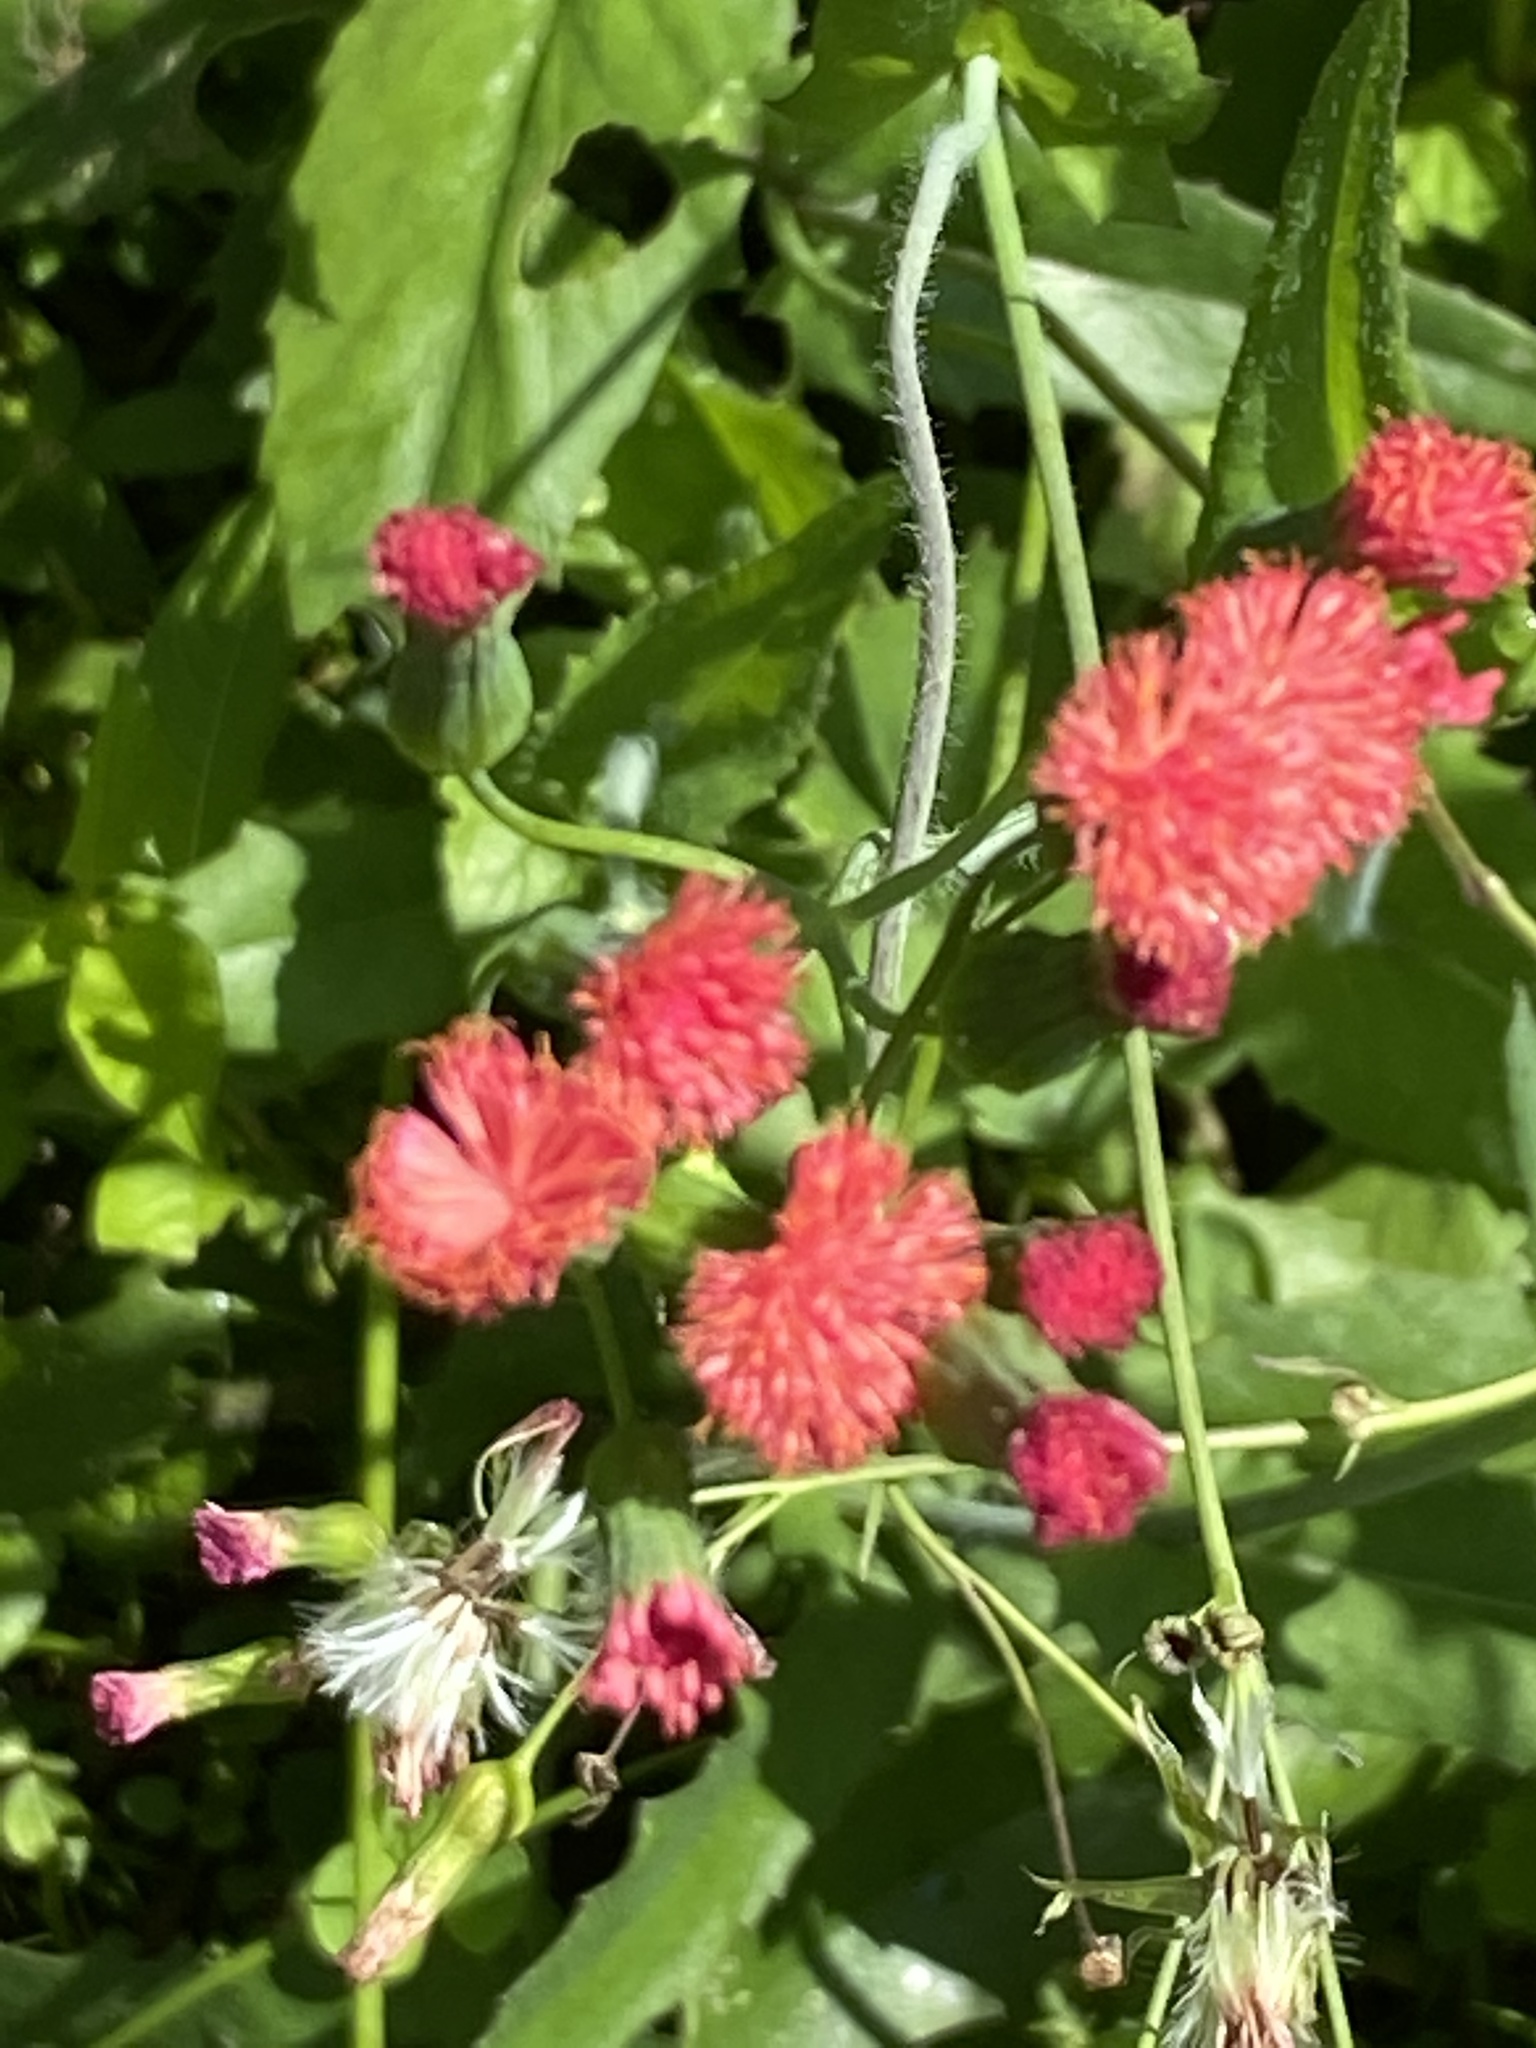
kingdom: Plantae
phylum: Tracheophyta
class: Magnoliopsida
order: Asterales
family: Asteraceae
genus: Emilia
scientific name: Emilia fosbergii
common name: Florida tasselflower
